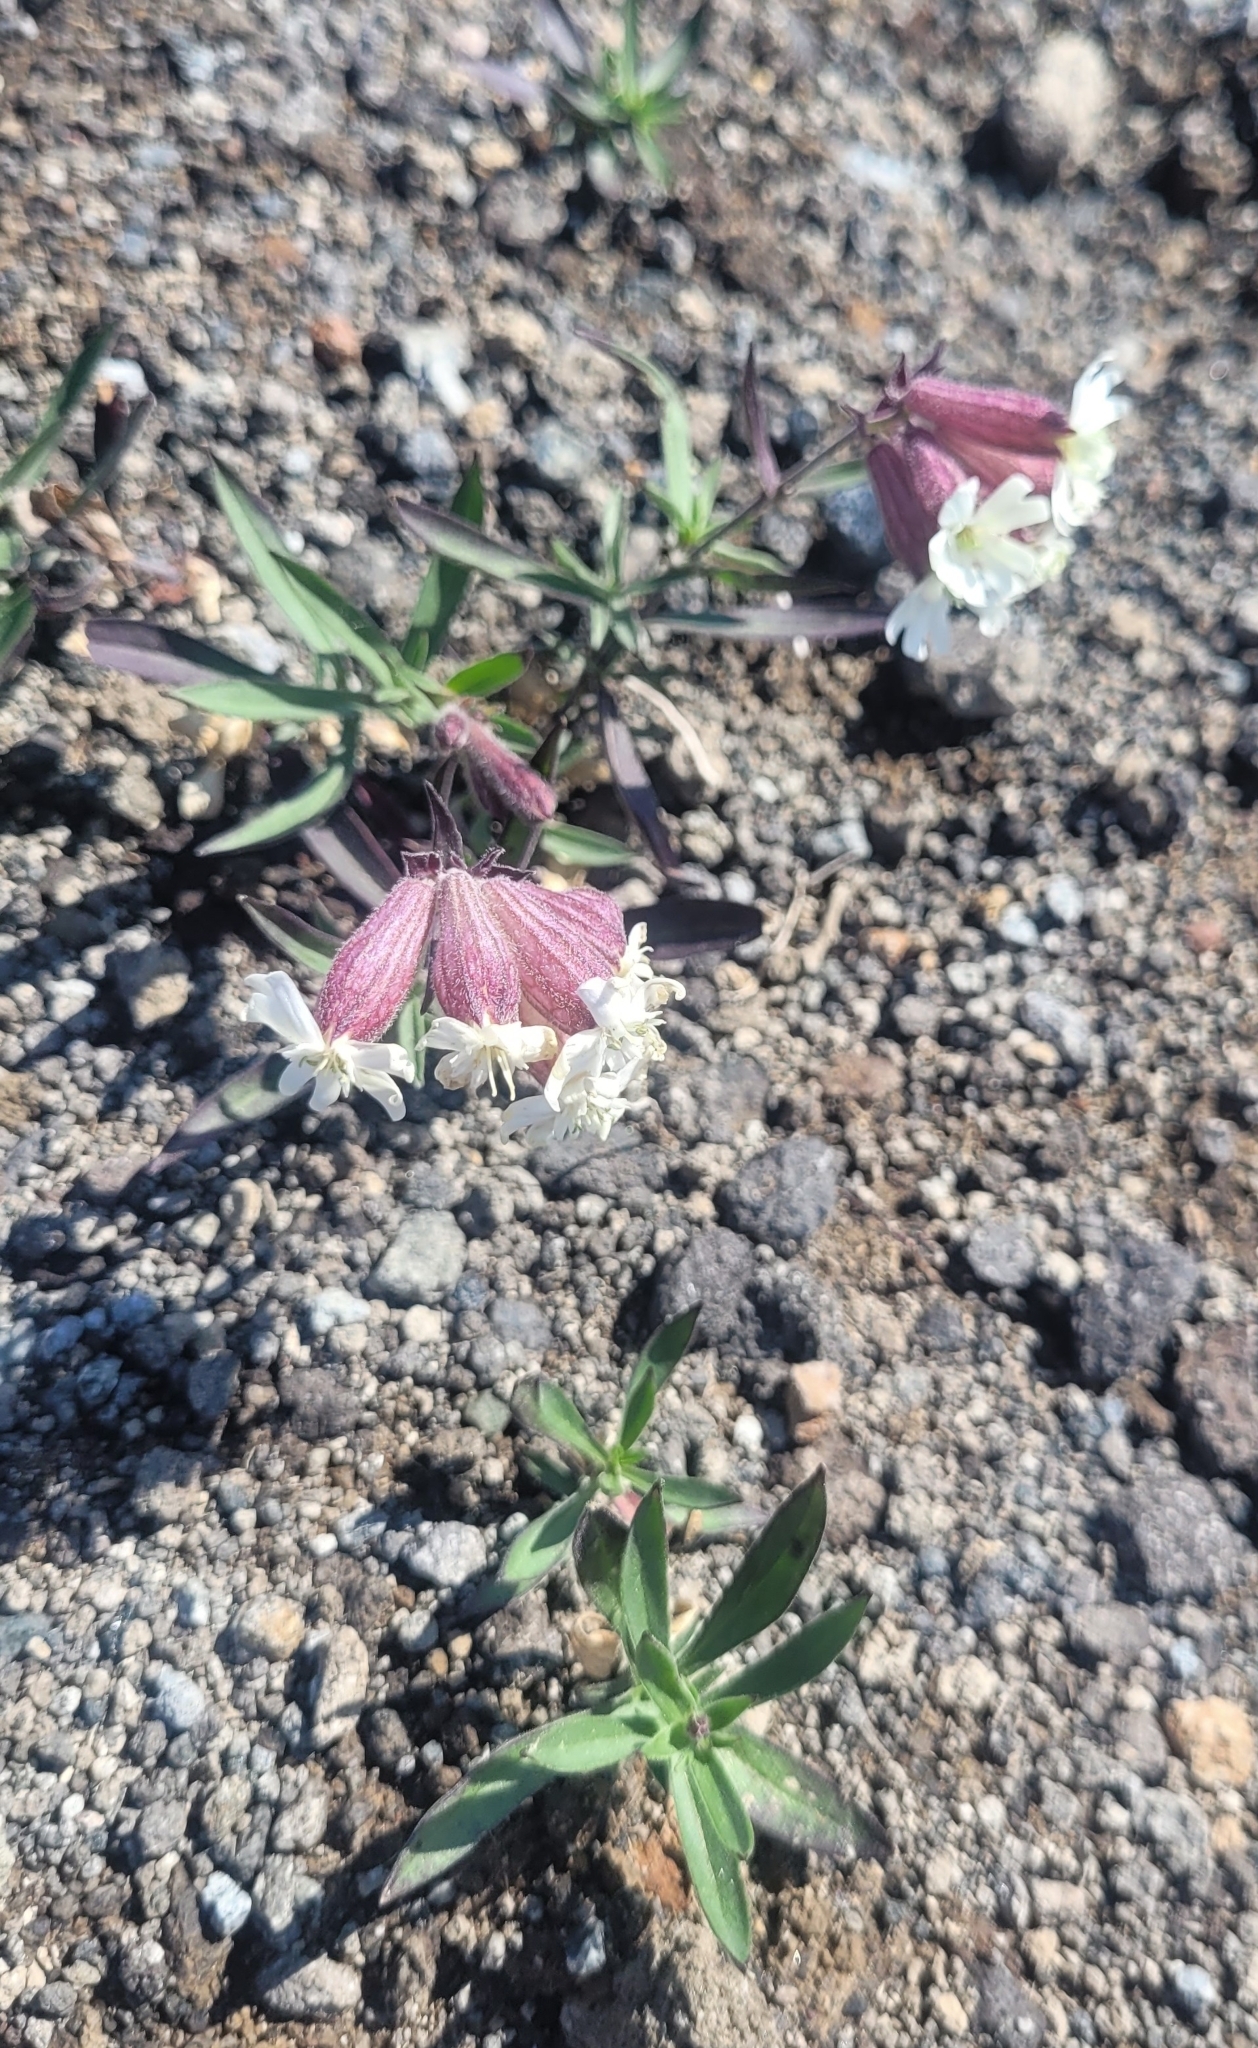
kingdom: Plantae
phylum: Tracheophyta
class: Magnoliopsida
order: Caryophyllales
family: Caryophyllaceae
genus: Silene
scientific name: Silene amoena
